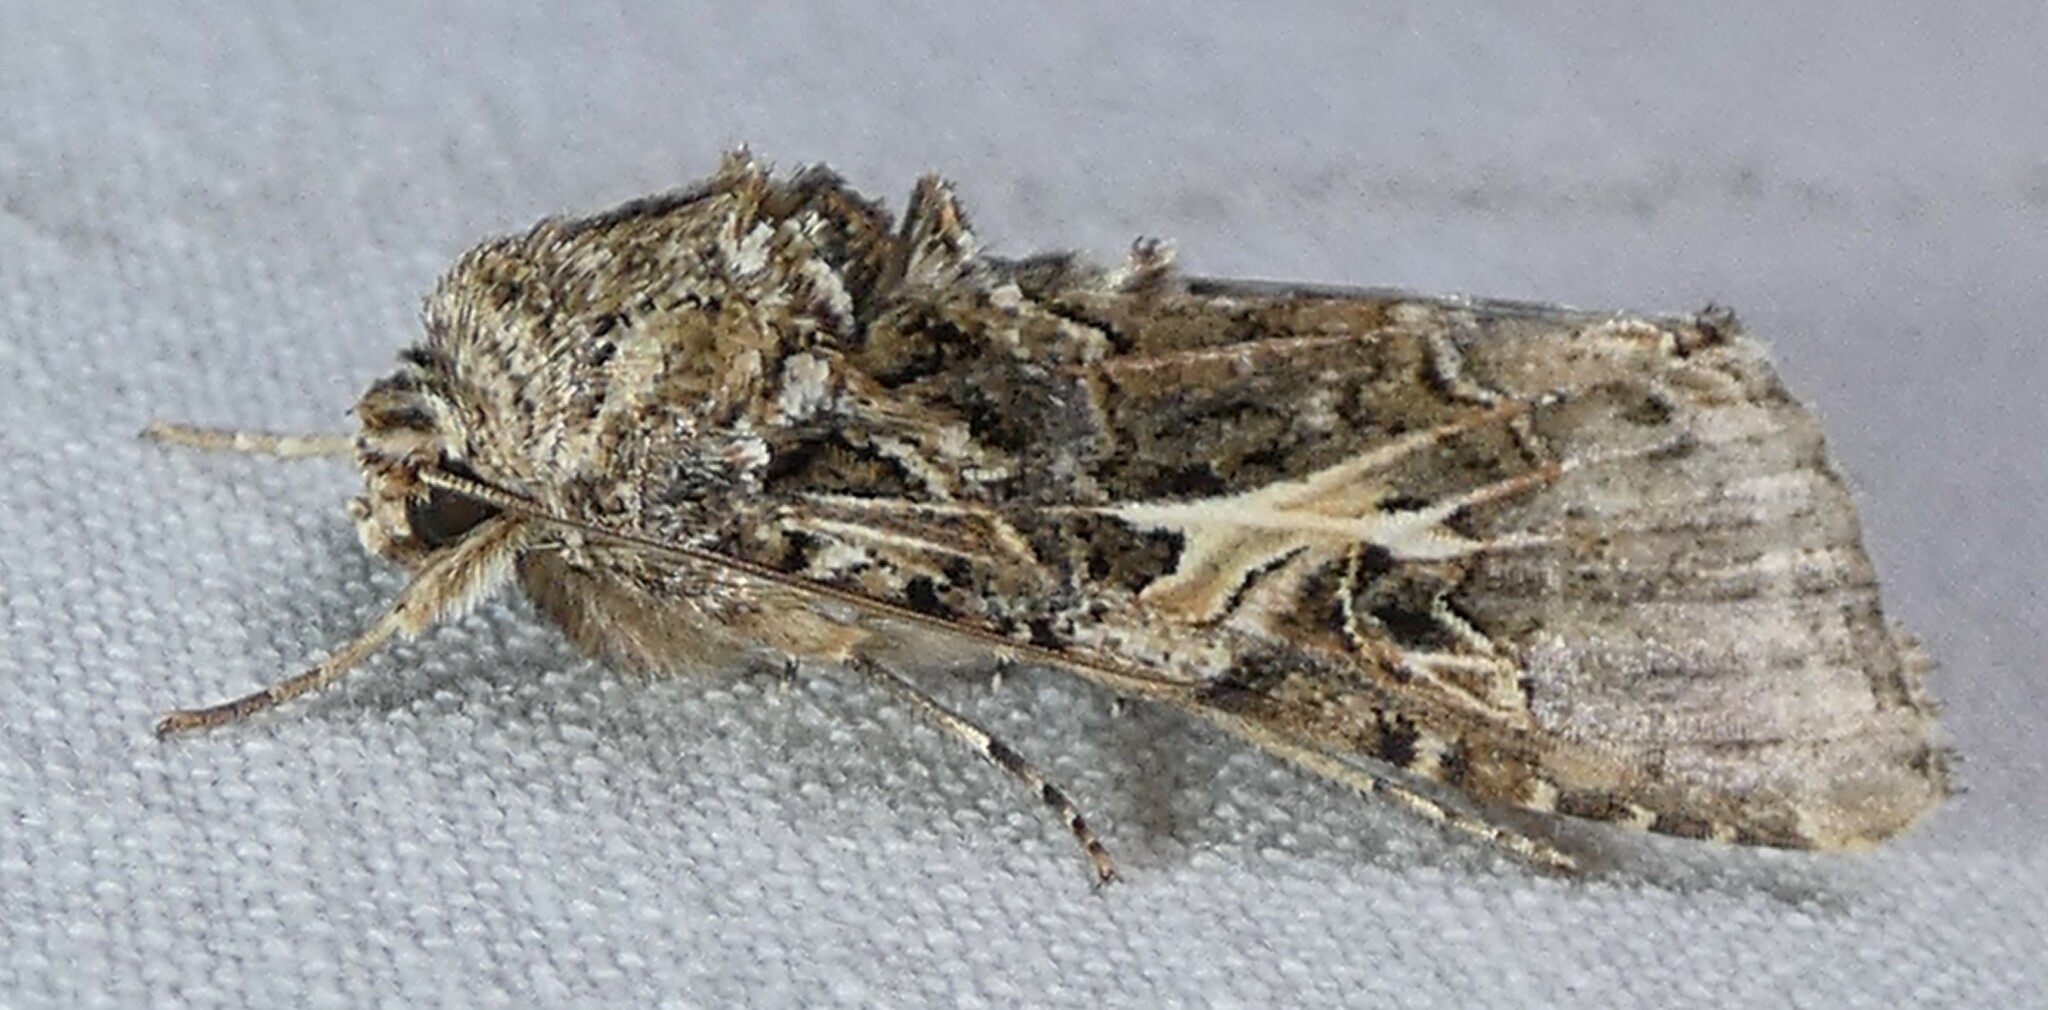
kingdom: Animalia
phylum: Arthropoda
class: Insecta
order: Lepidoptera
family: Noctuidae
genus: Spodoptera
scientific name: Spodoptera ornithogalli
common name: Yellow-striped armyworm
